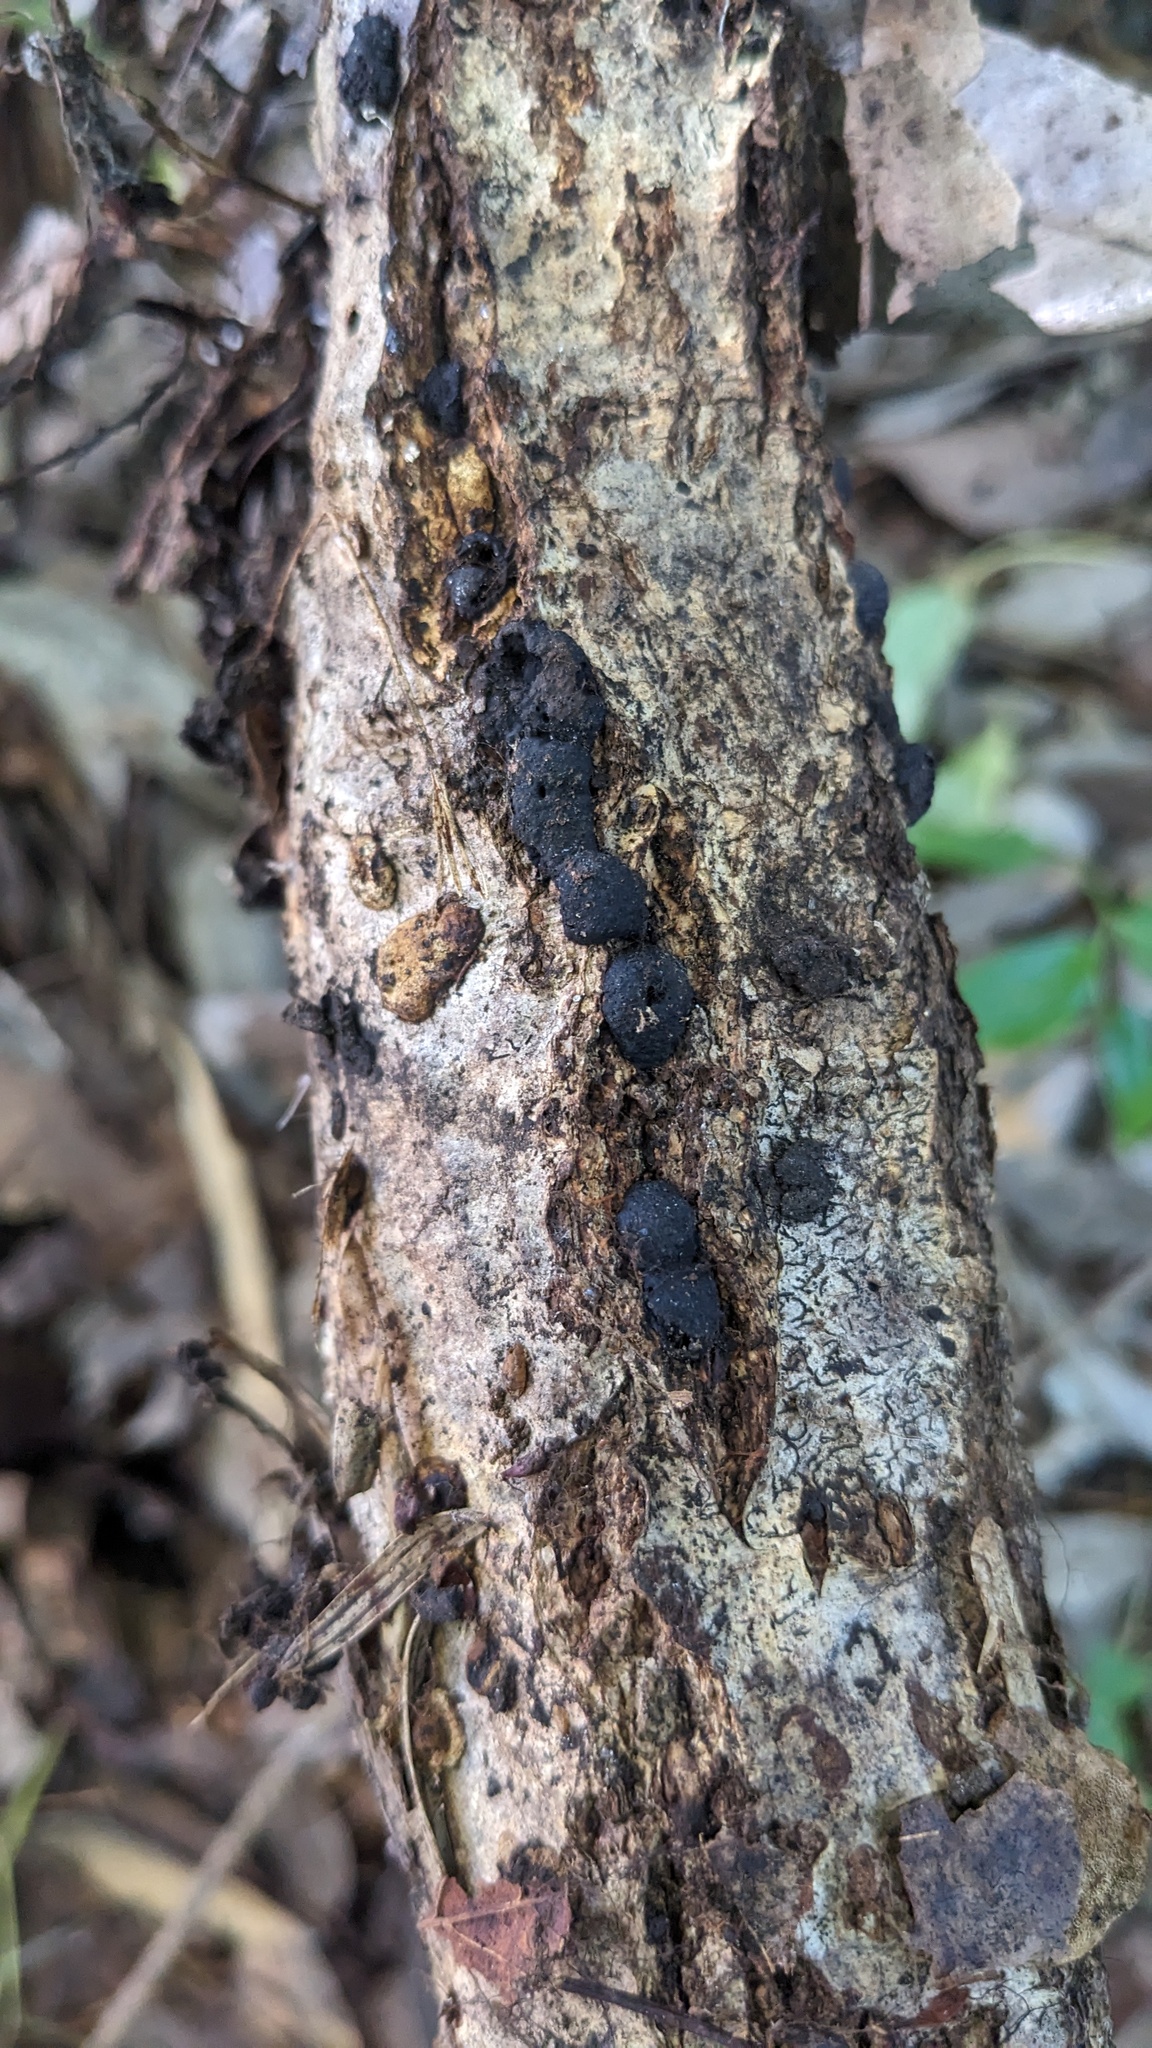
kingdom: Fungi
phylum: Ascomycota
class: Sordariomycetes
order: Xylariales
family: Hypoxylaceae
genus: Annulohypoxylon
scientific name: Annulohypoxylon truncatum
